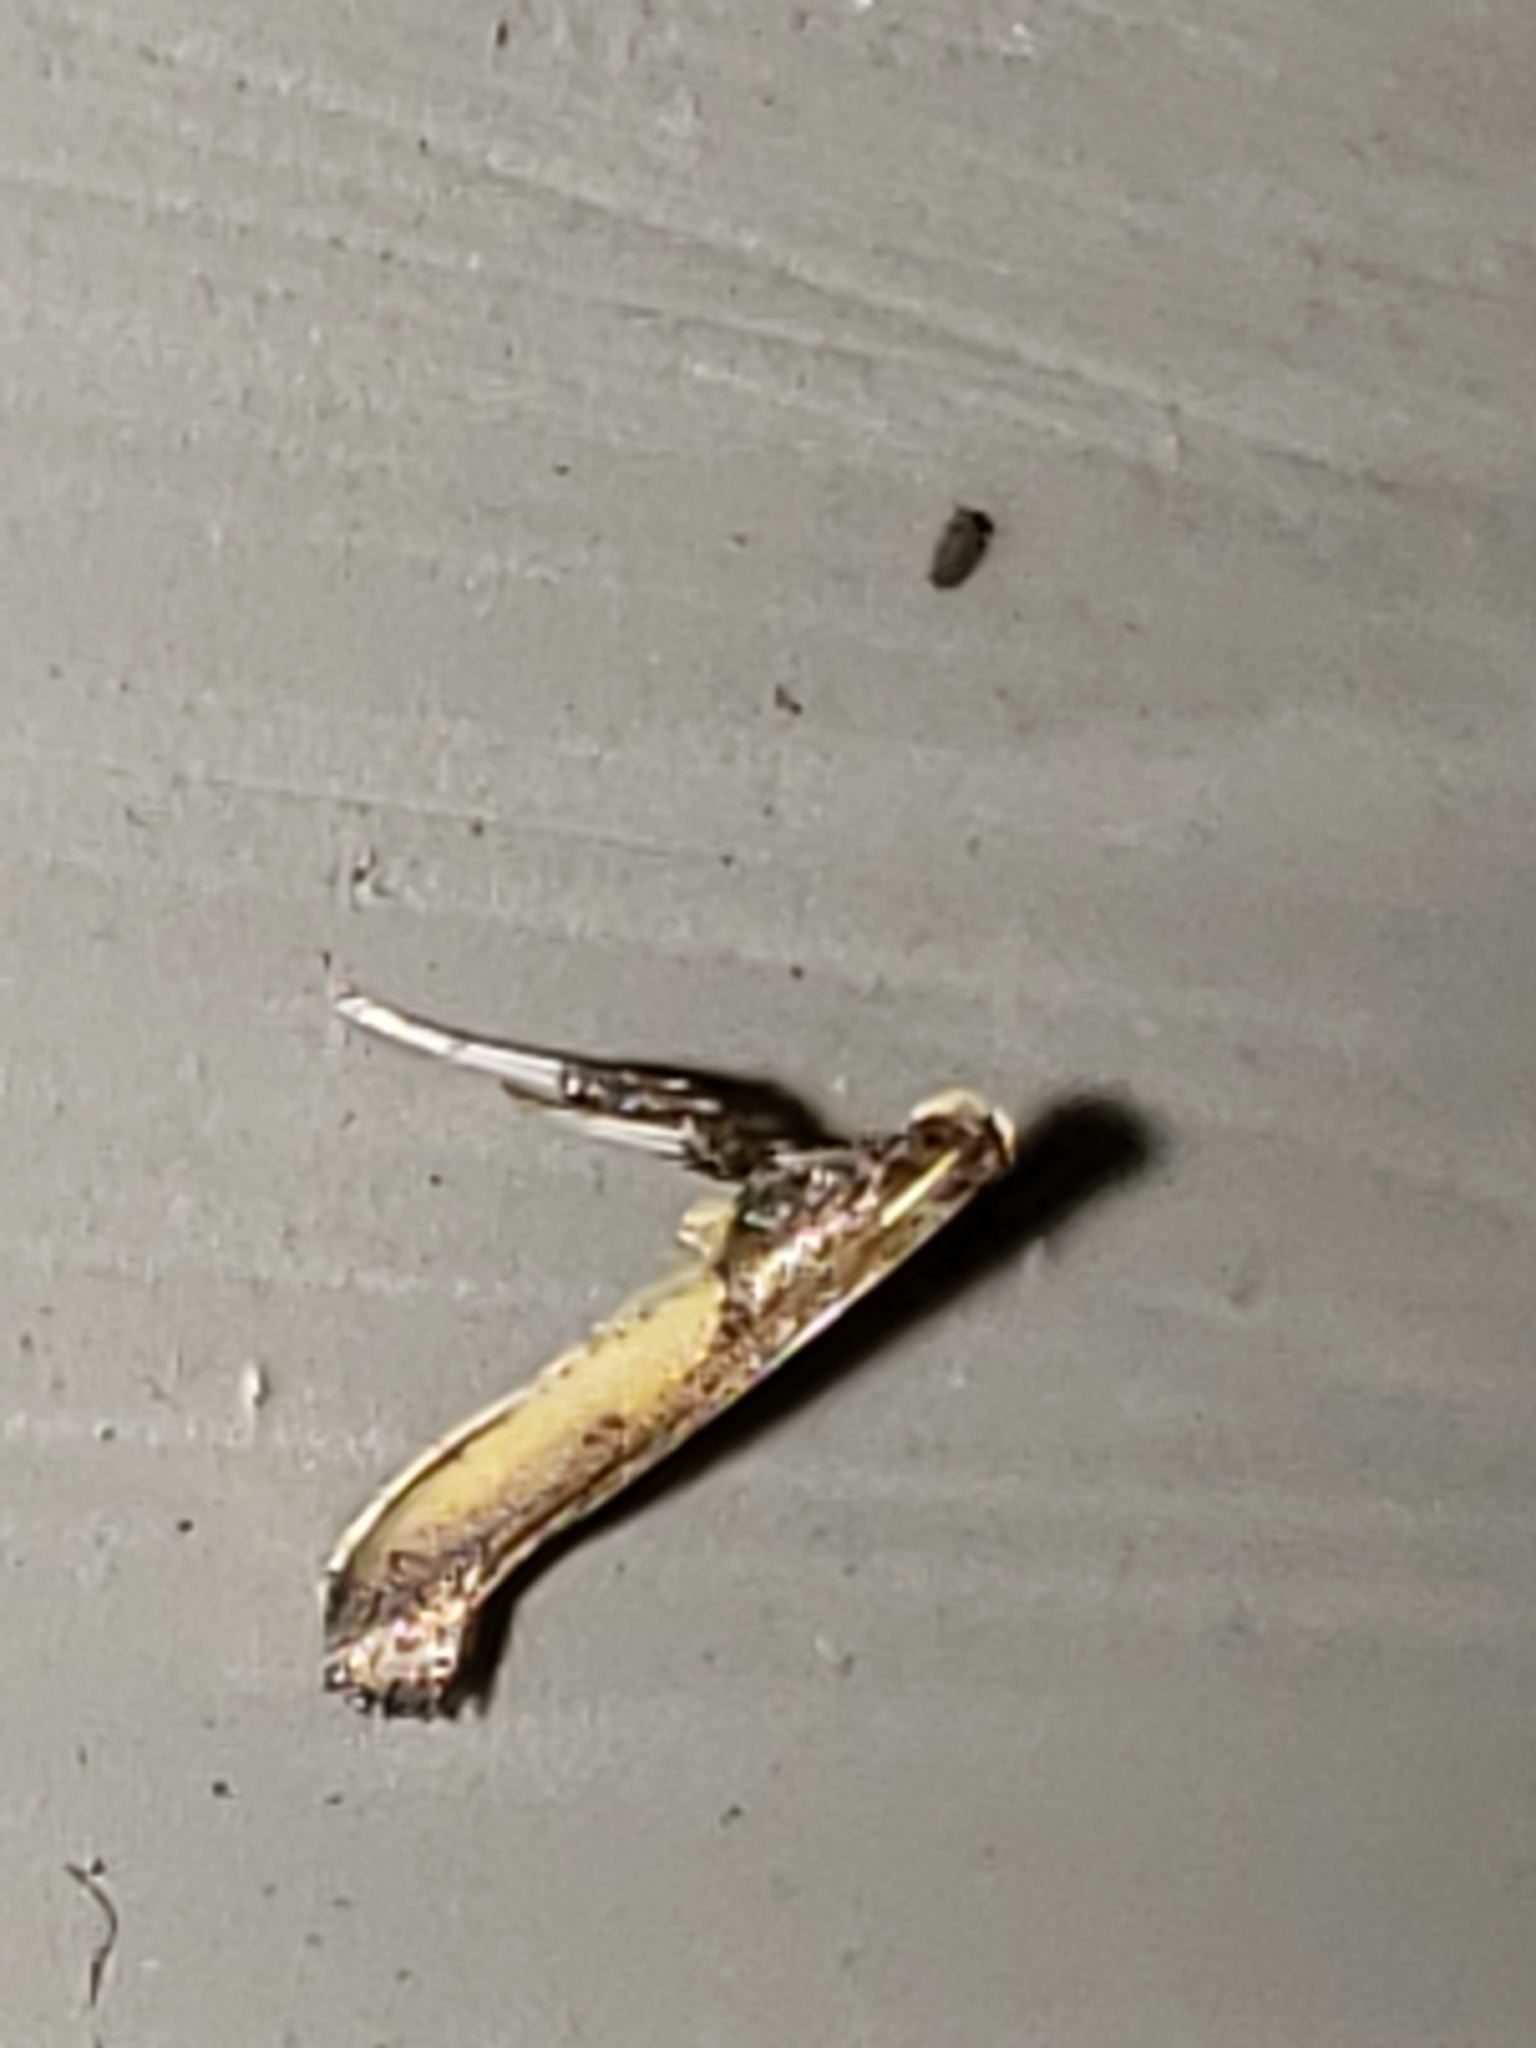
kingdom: Animalia
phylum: Arthropoda
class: Insecta
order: Lepidoptera
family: Gracillariidae
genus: Caloptilia
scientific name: Caloptilia azaleella
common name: Azalea leafminer
